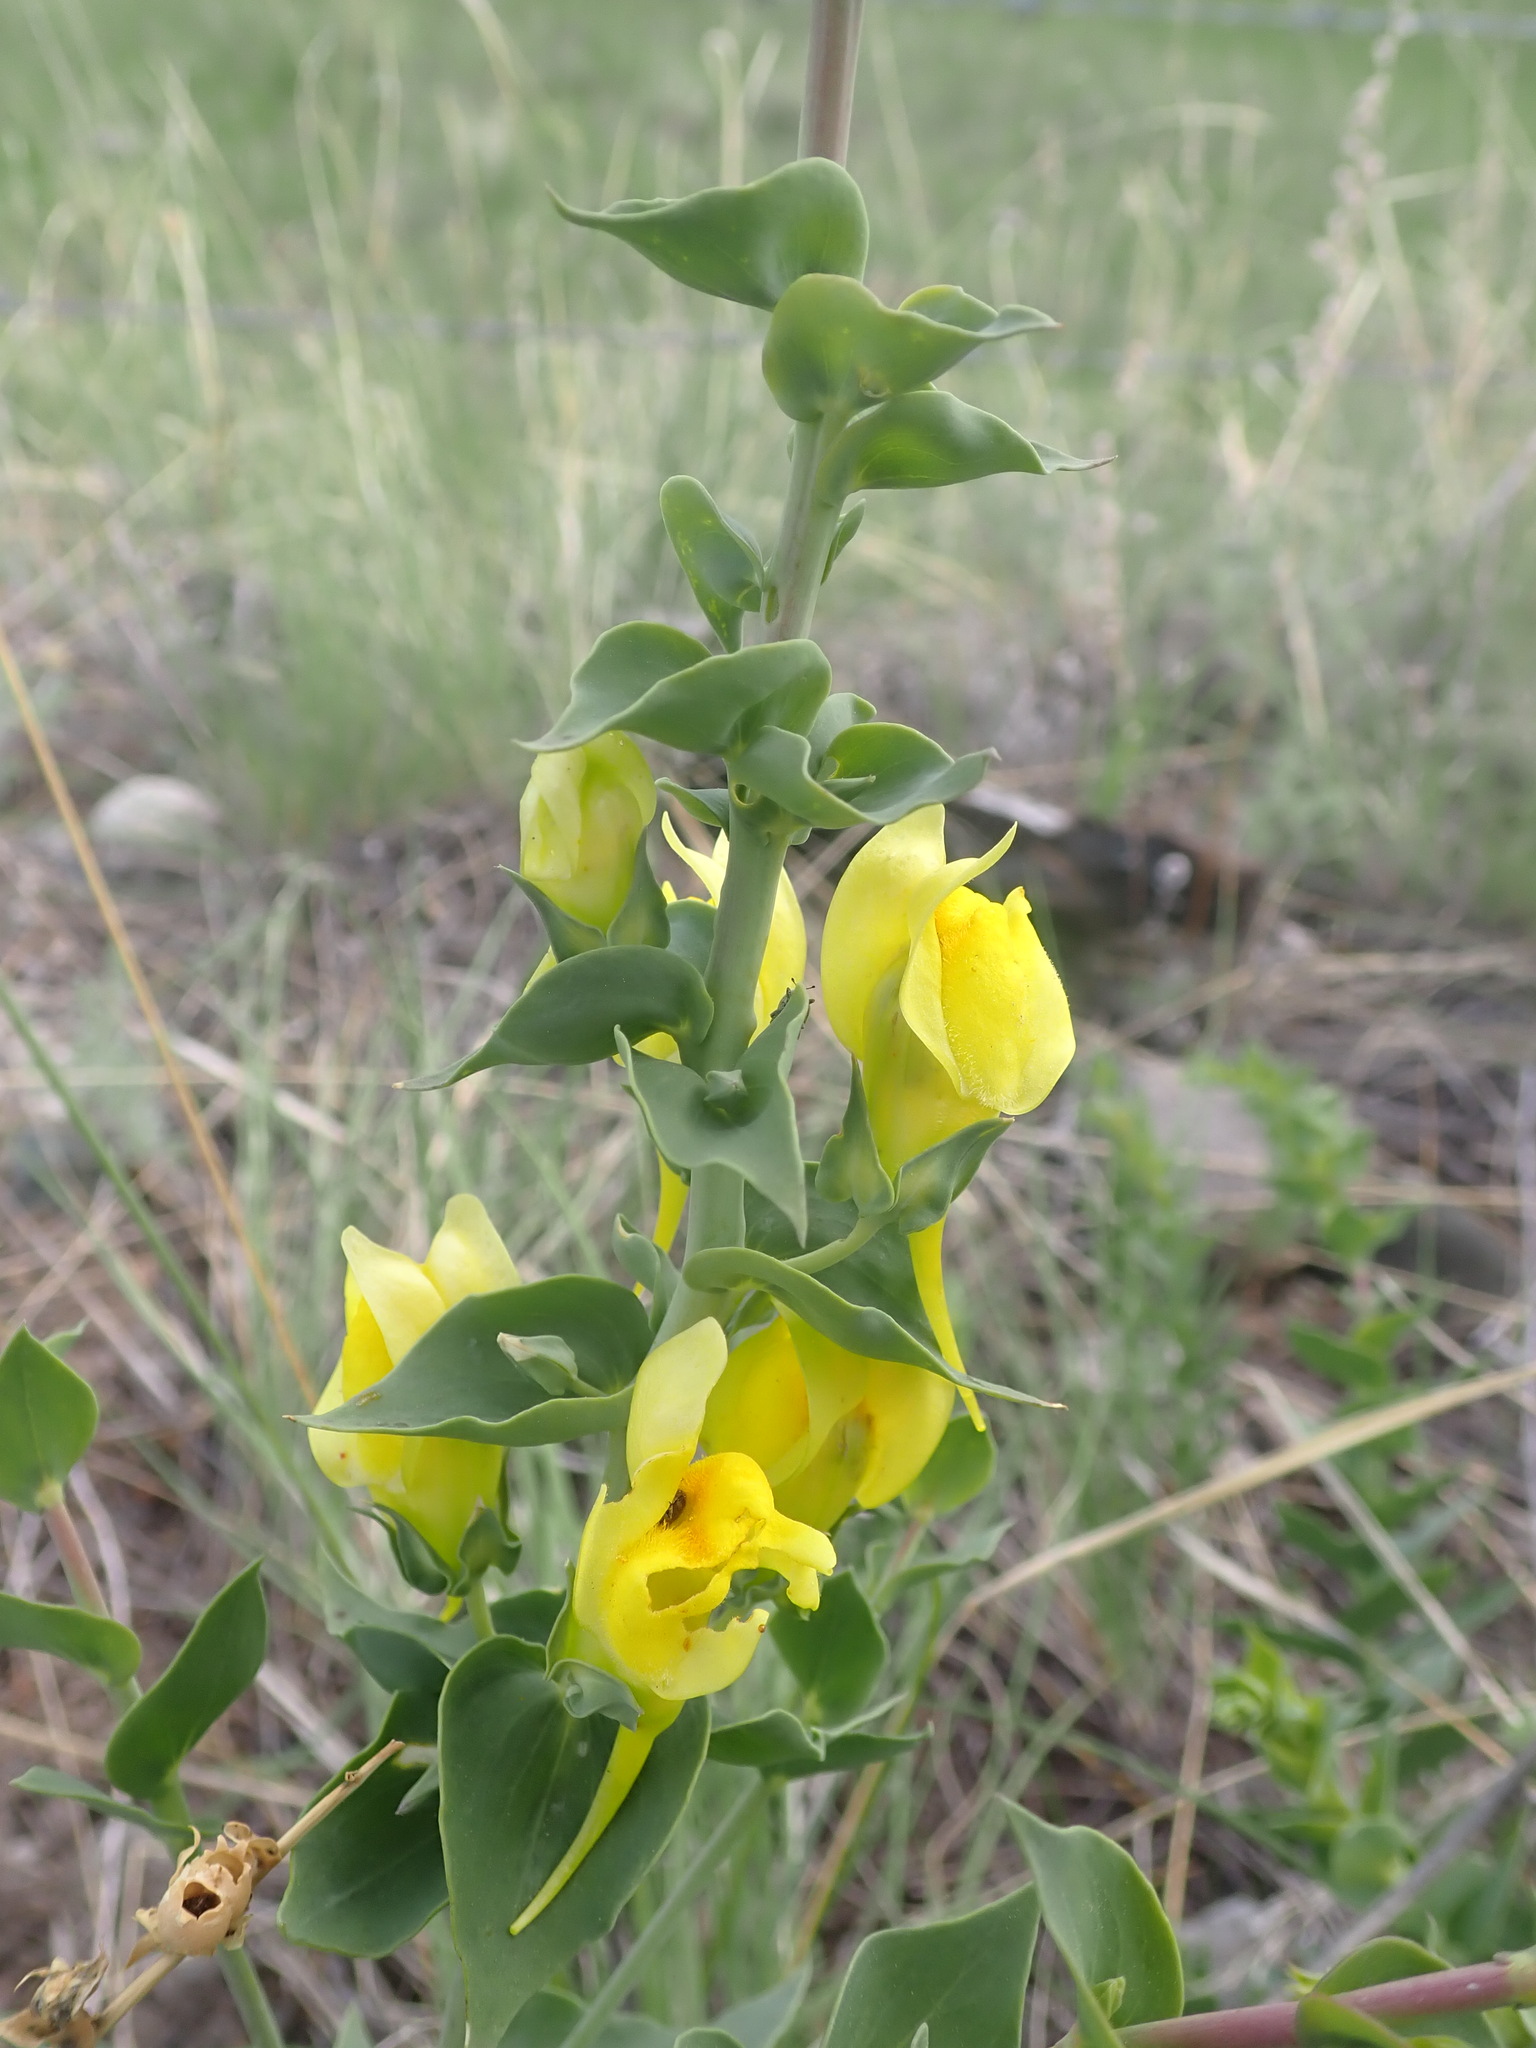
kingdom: Plantae
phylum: Tracheophyta
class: Magnoliopsida
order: Lamiales
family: Plantaginaceae
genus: Linaria
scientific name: Linaria dalmatica
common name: Dalmatian toadflax
